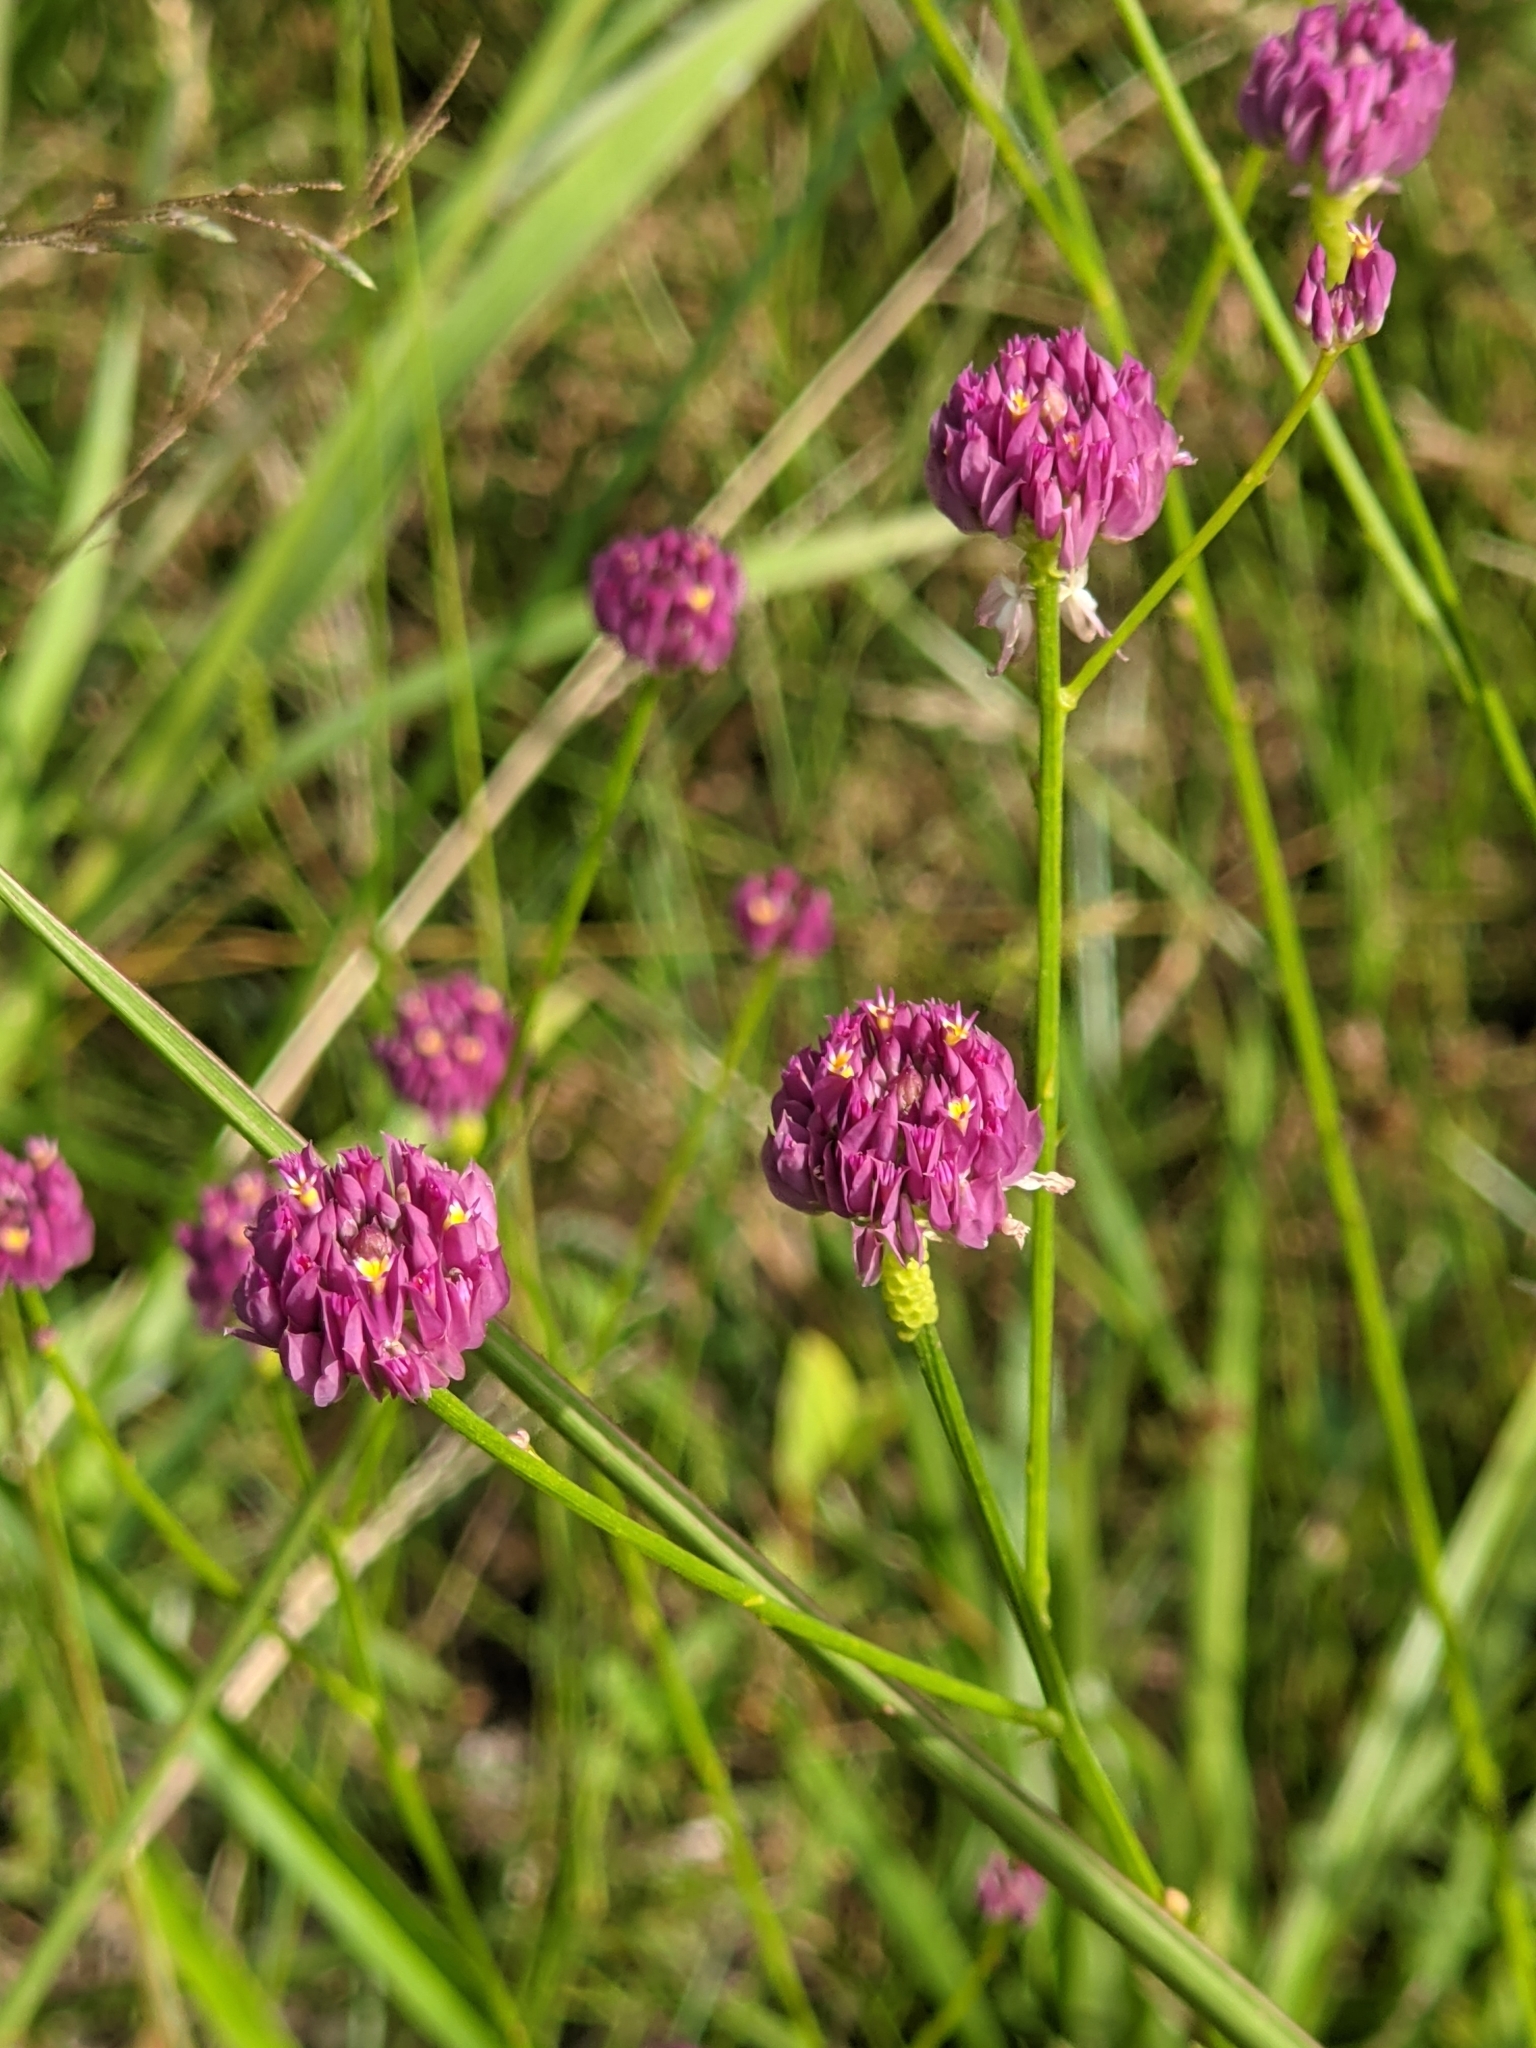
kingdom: Plantae
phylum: Tracheophyta
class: Magnoliopsida
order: Fabales
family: Polygalaceae
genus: Polygala
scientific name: Polygala longicaulis
